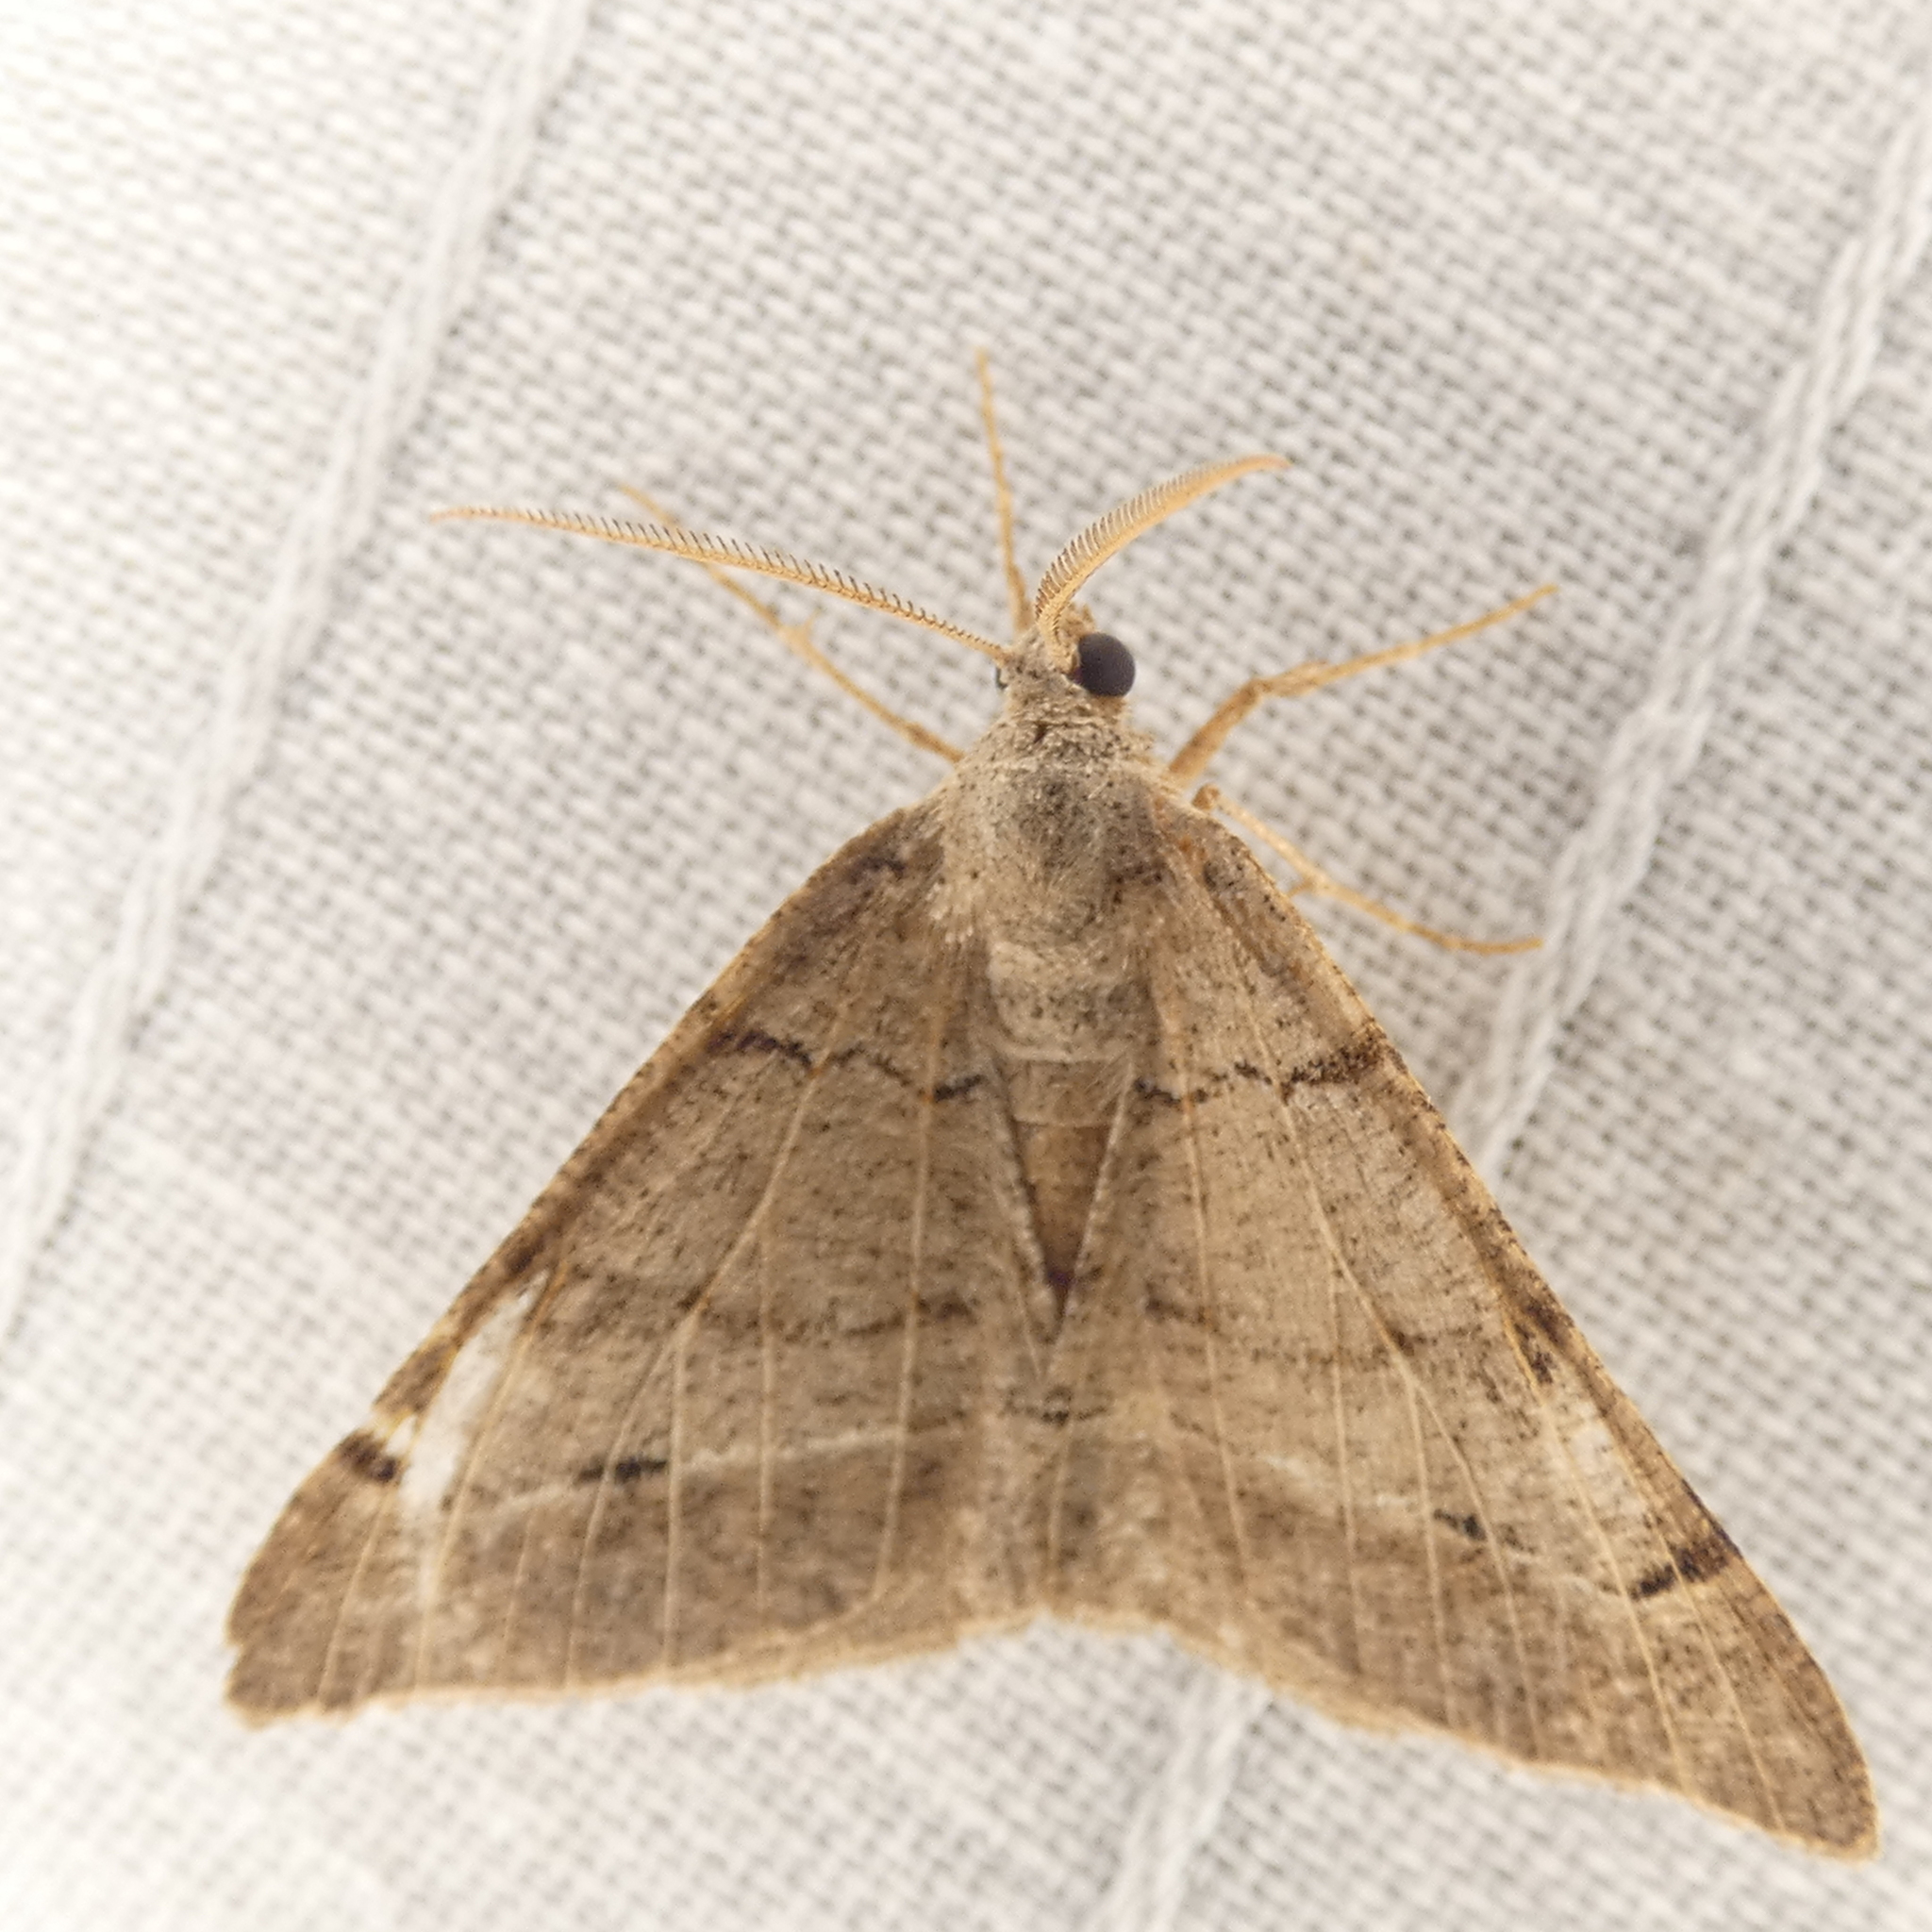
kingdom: Animalia
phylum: Arthropoda
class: Insecta
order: Lepidoptera
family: Geometridae
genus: Isturgia
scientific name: Isturgia dislocaria
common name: Pale-viened enconista
